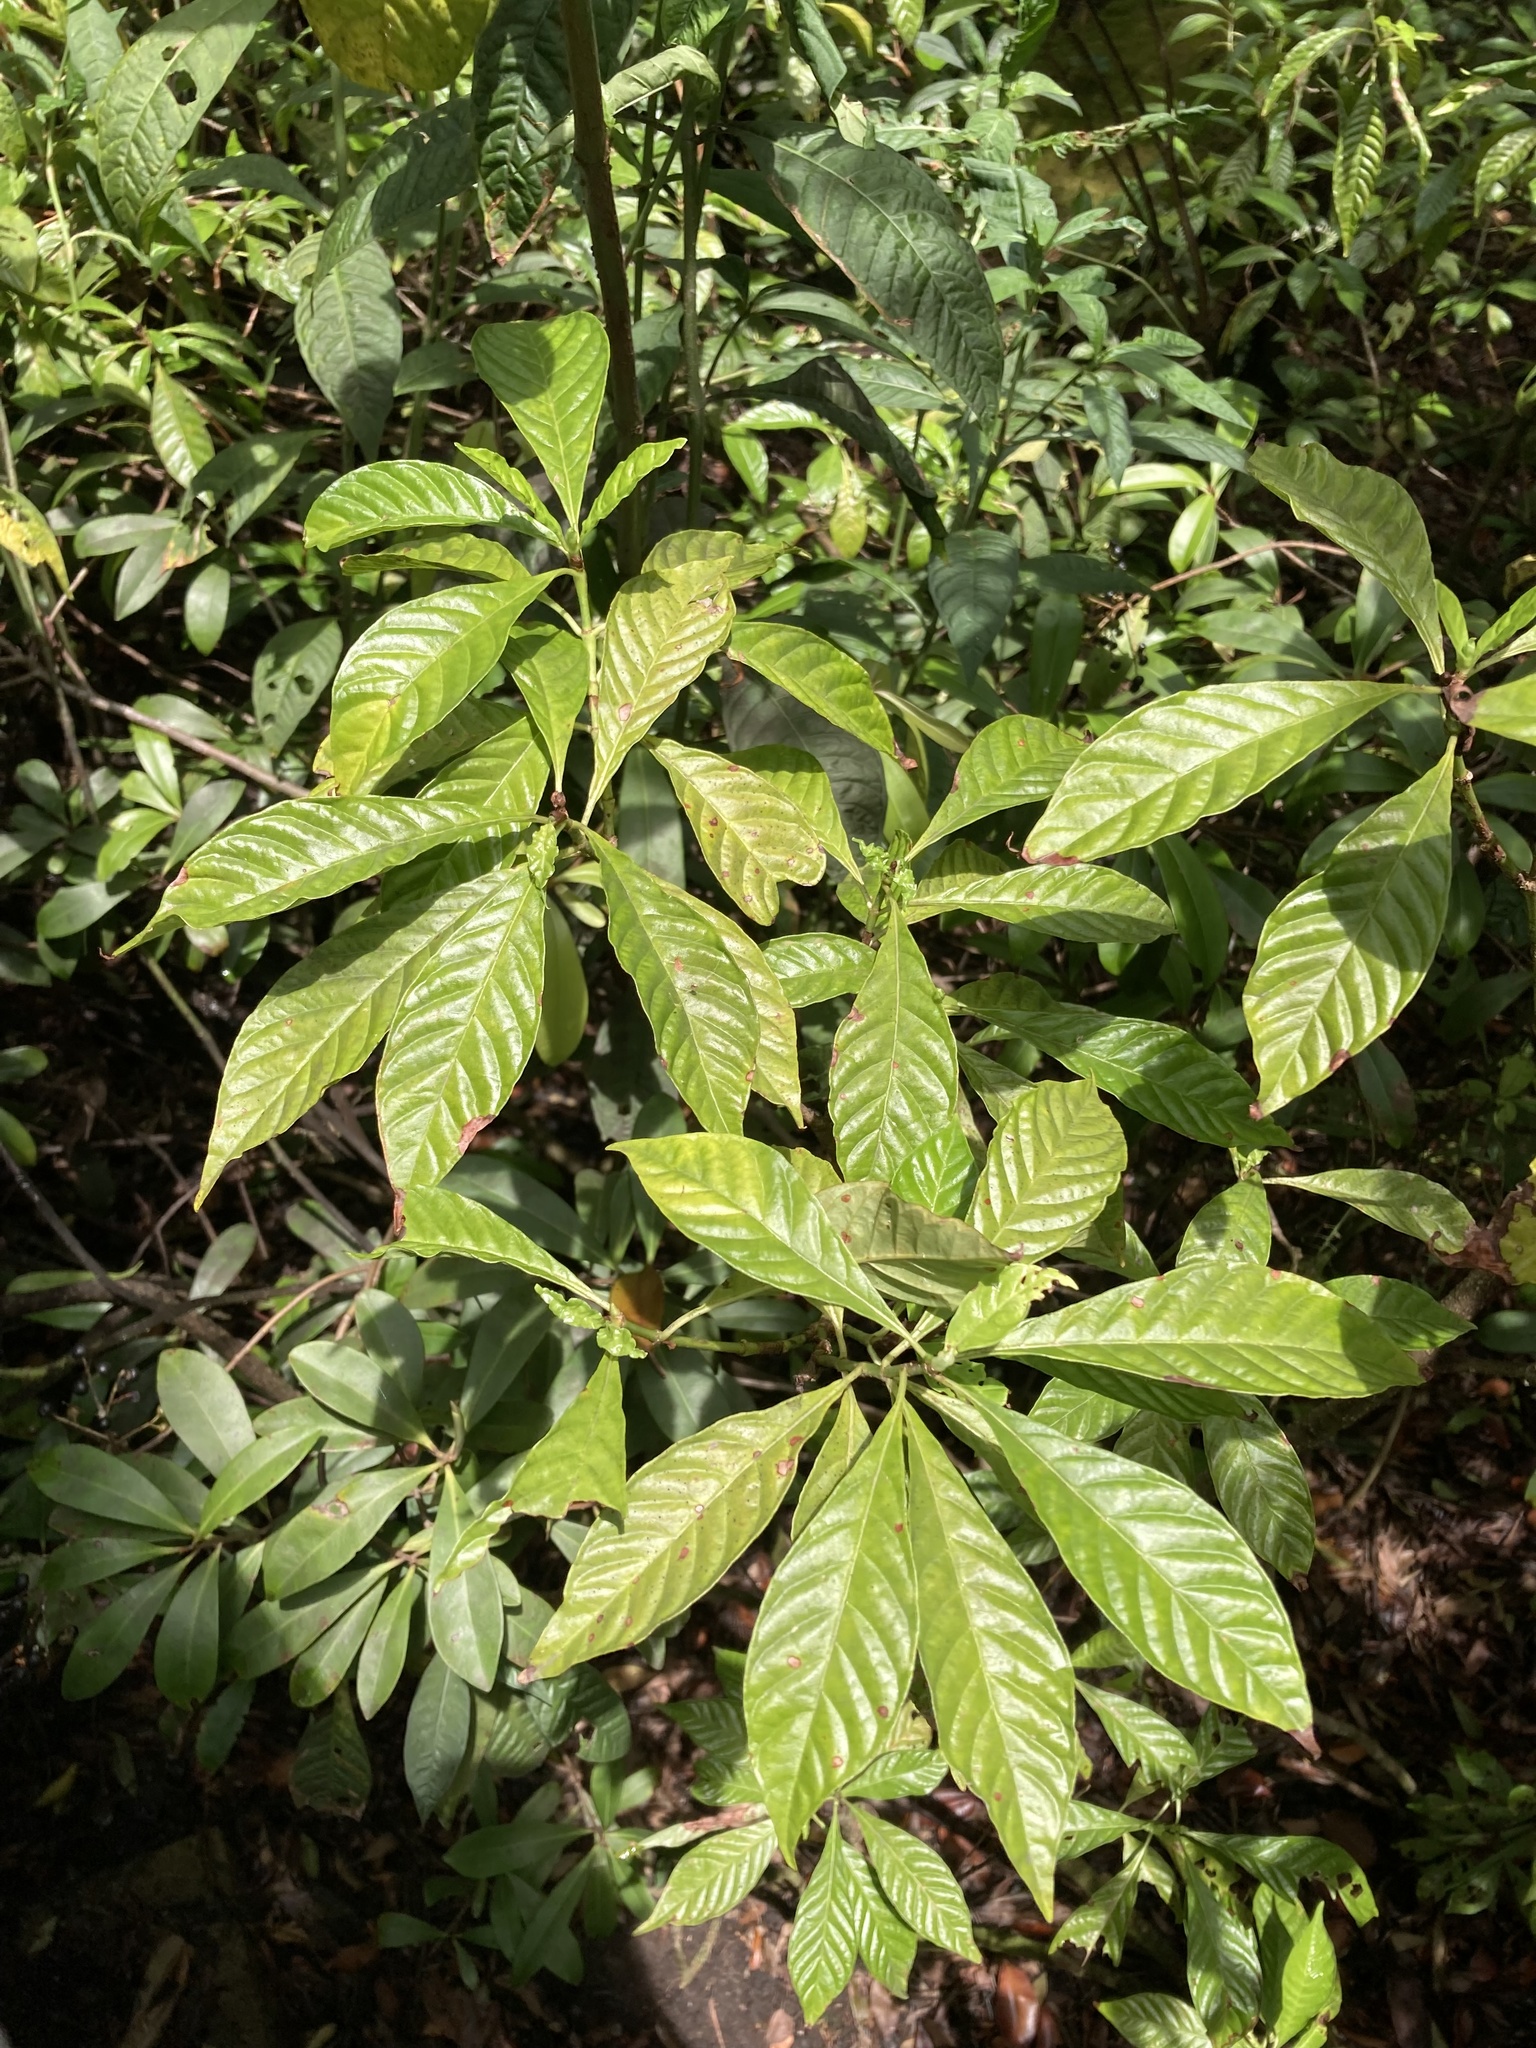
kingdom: Plantae
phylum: Tracheophyta
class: Magnoliopsida
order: Gentianales
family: Rubiaceae
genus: Psychotria
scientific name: Psychotria nervosa
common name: Bastard cankerberry
